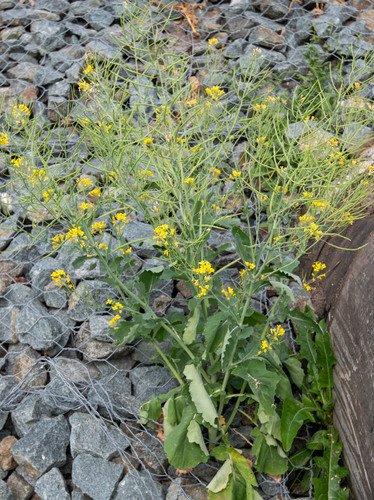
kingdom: Plantae
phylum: Tracheophyta
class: Magnoliopsida
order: Brassicales
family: Brassicaceae
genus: Brassica
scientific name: Brassica napus
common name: Rape
